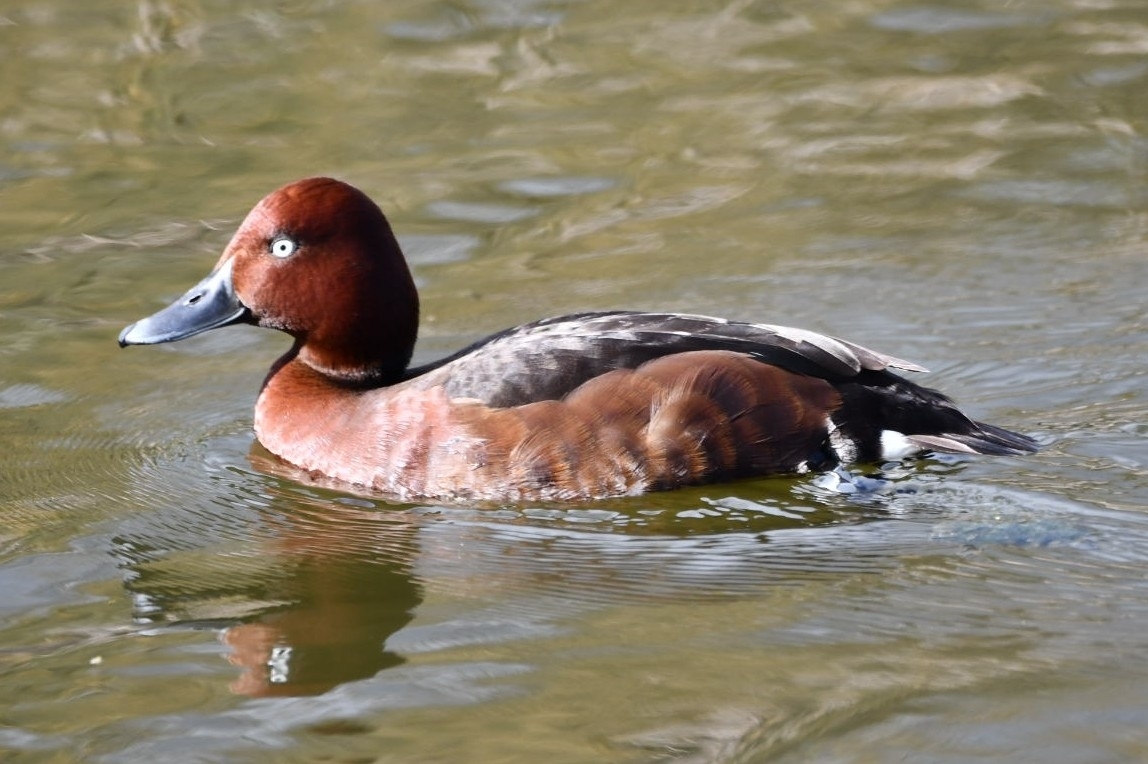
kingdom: Animalia
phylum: Chordata
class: Aves
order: Anseriformes
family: Anatidae
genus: Aythya
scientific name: Aythya nyroca
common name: Ferruginous duck
